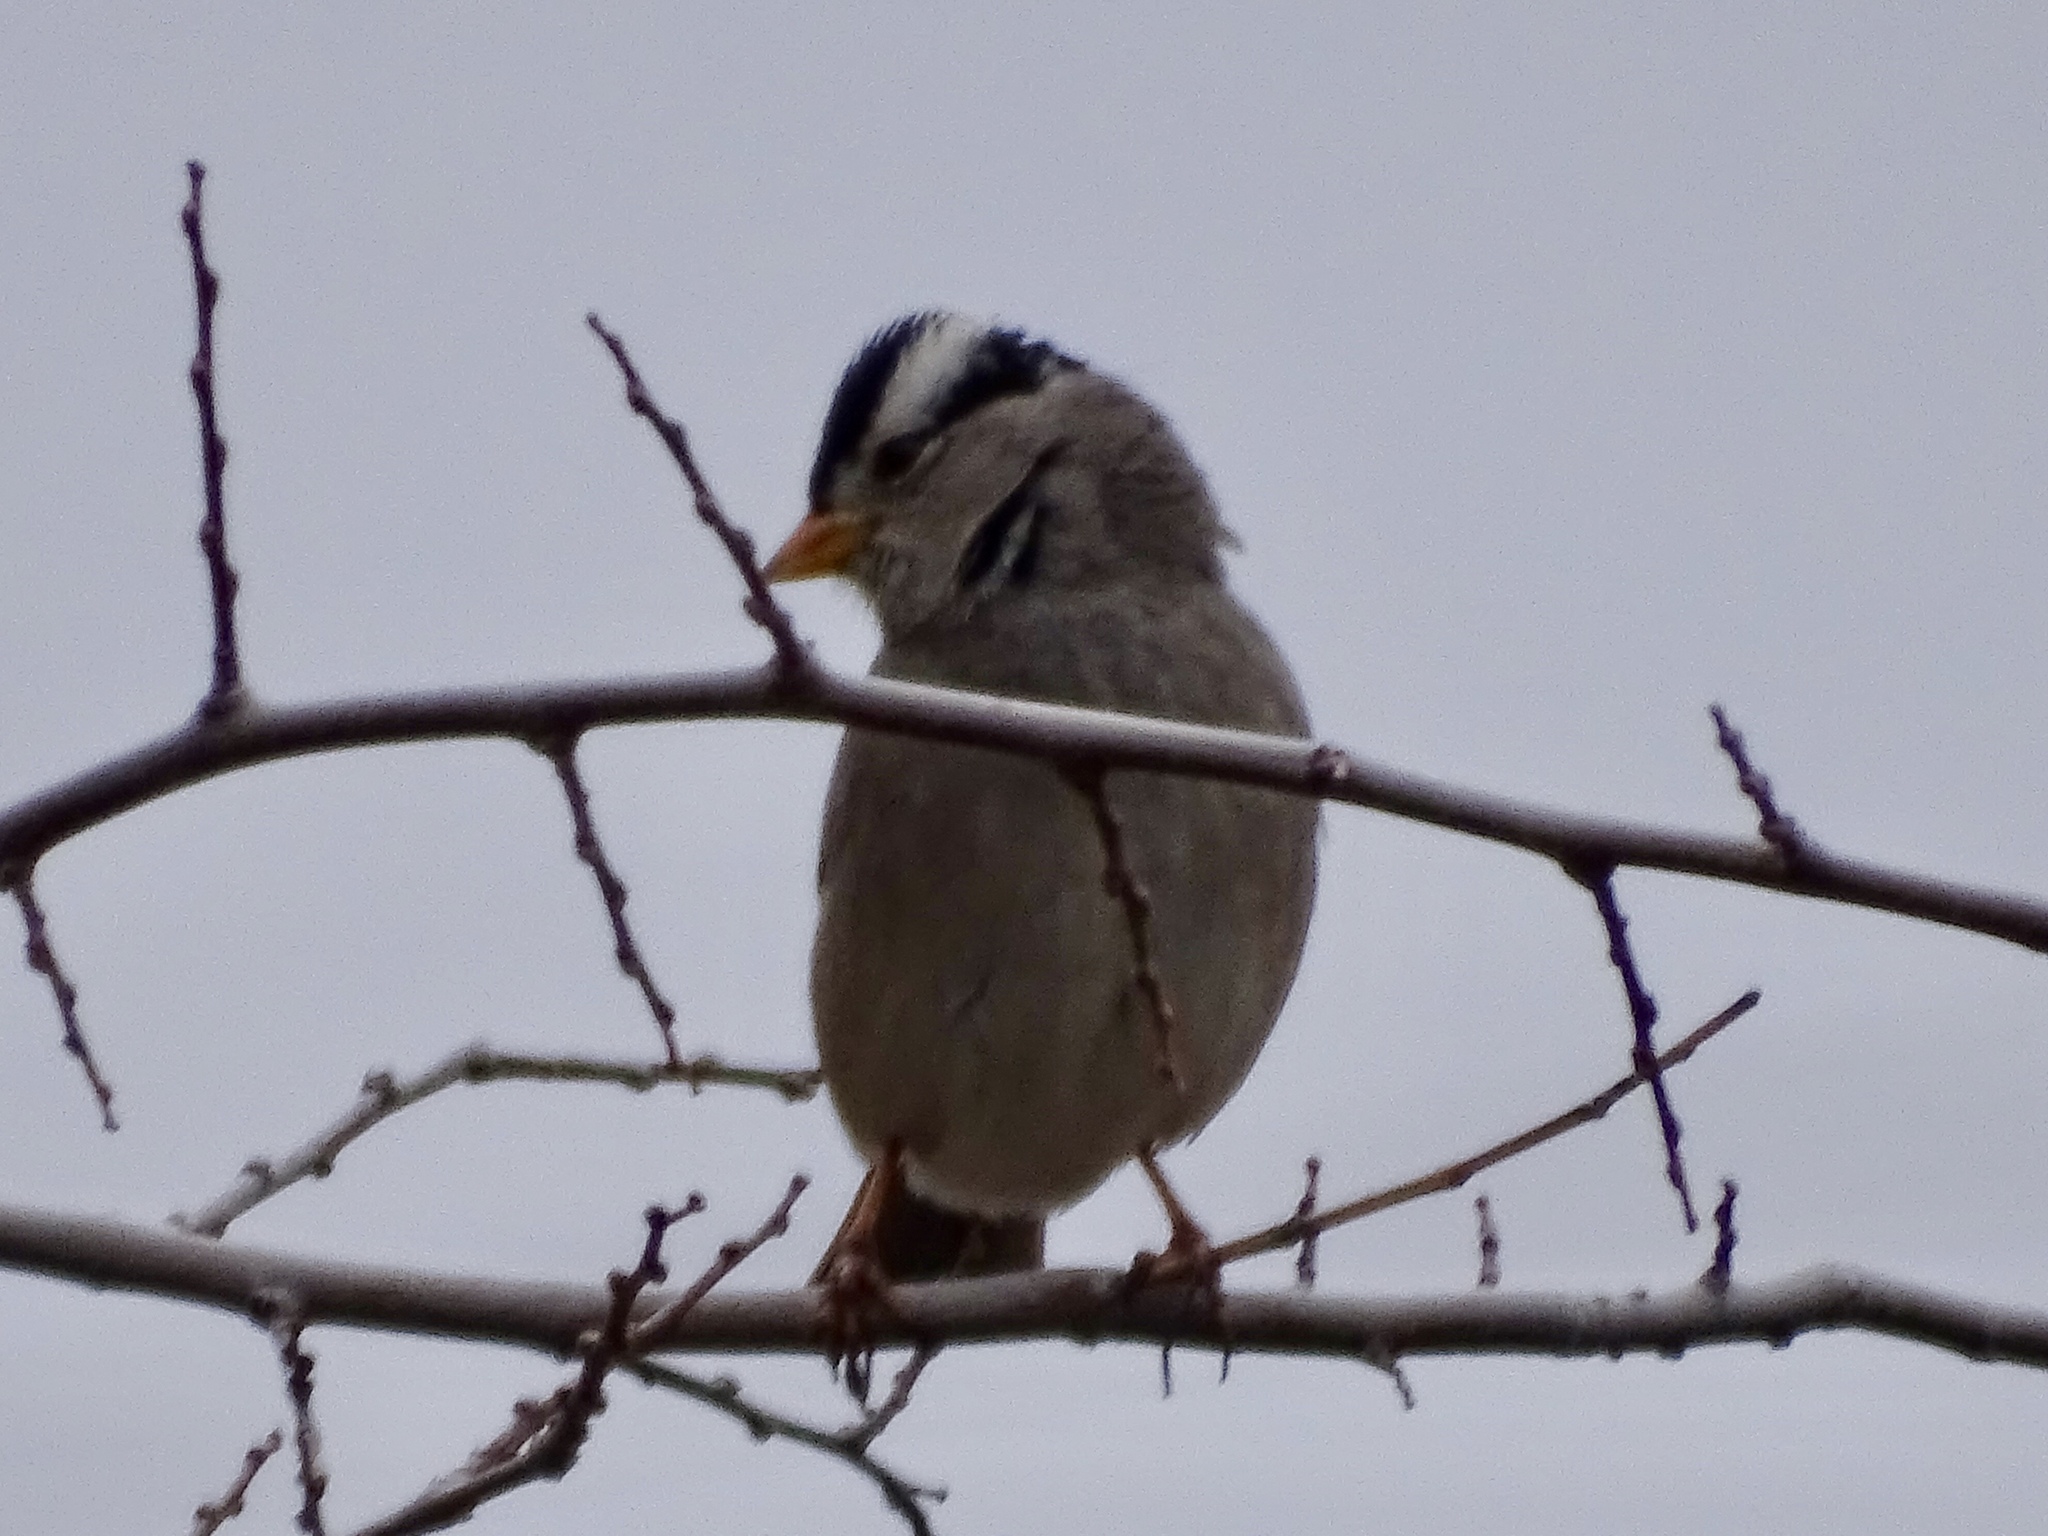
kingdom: Animalia
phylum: Chordata
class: Aves
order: Passeriformes
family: Passerellidae
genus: Zonotrichia
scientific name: Zonotrichia leucophrys
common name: White-crowned sparrow
